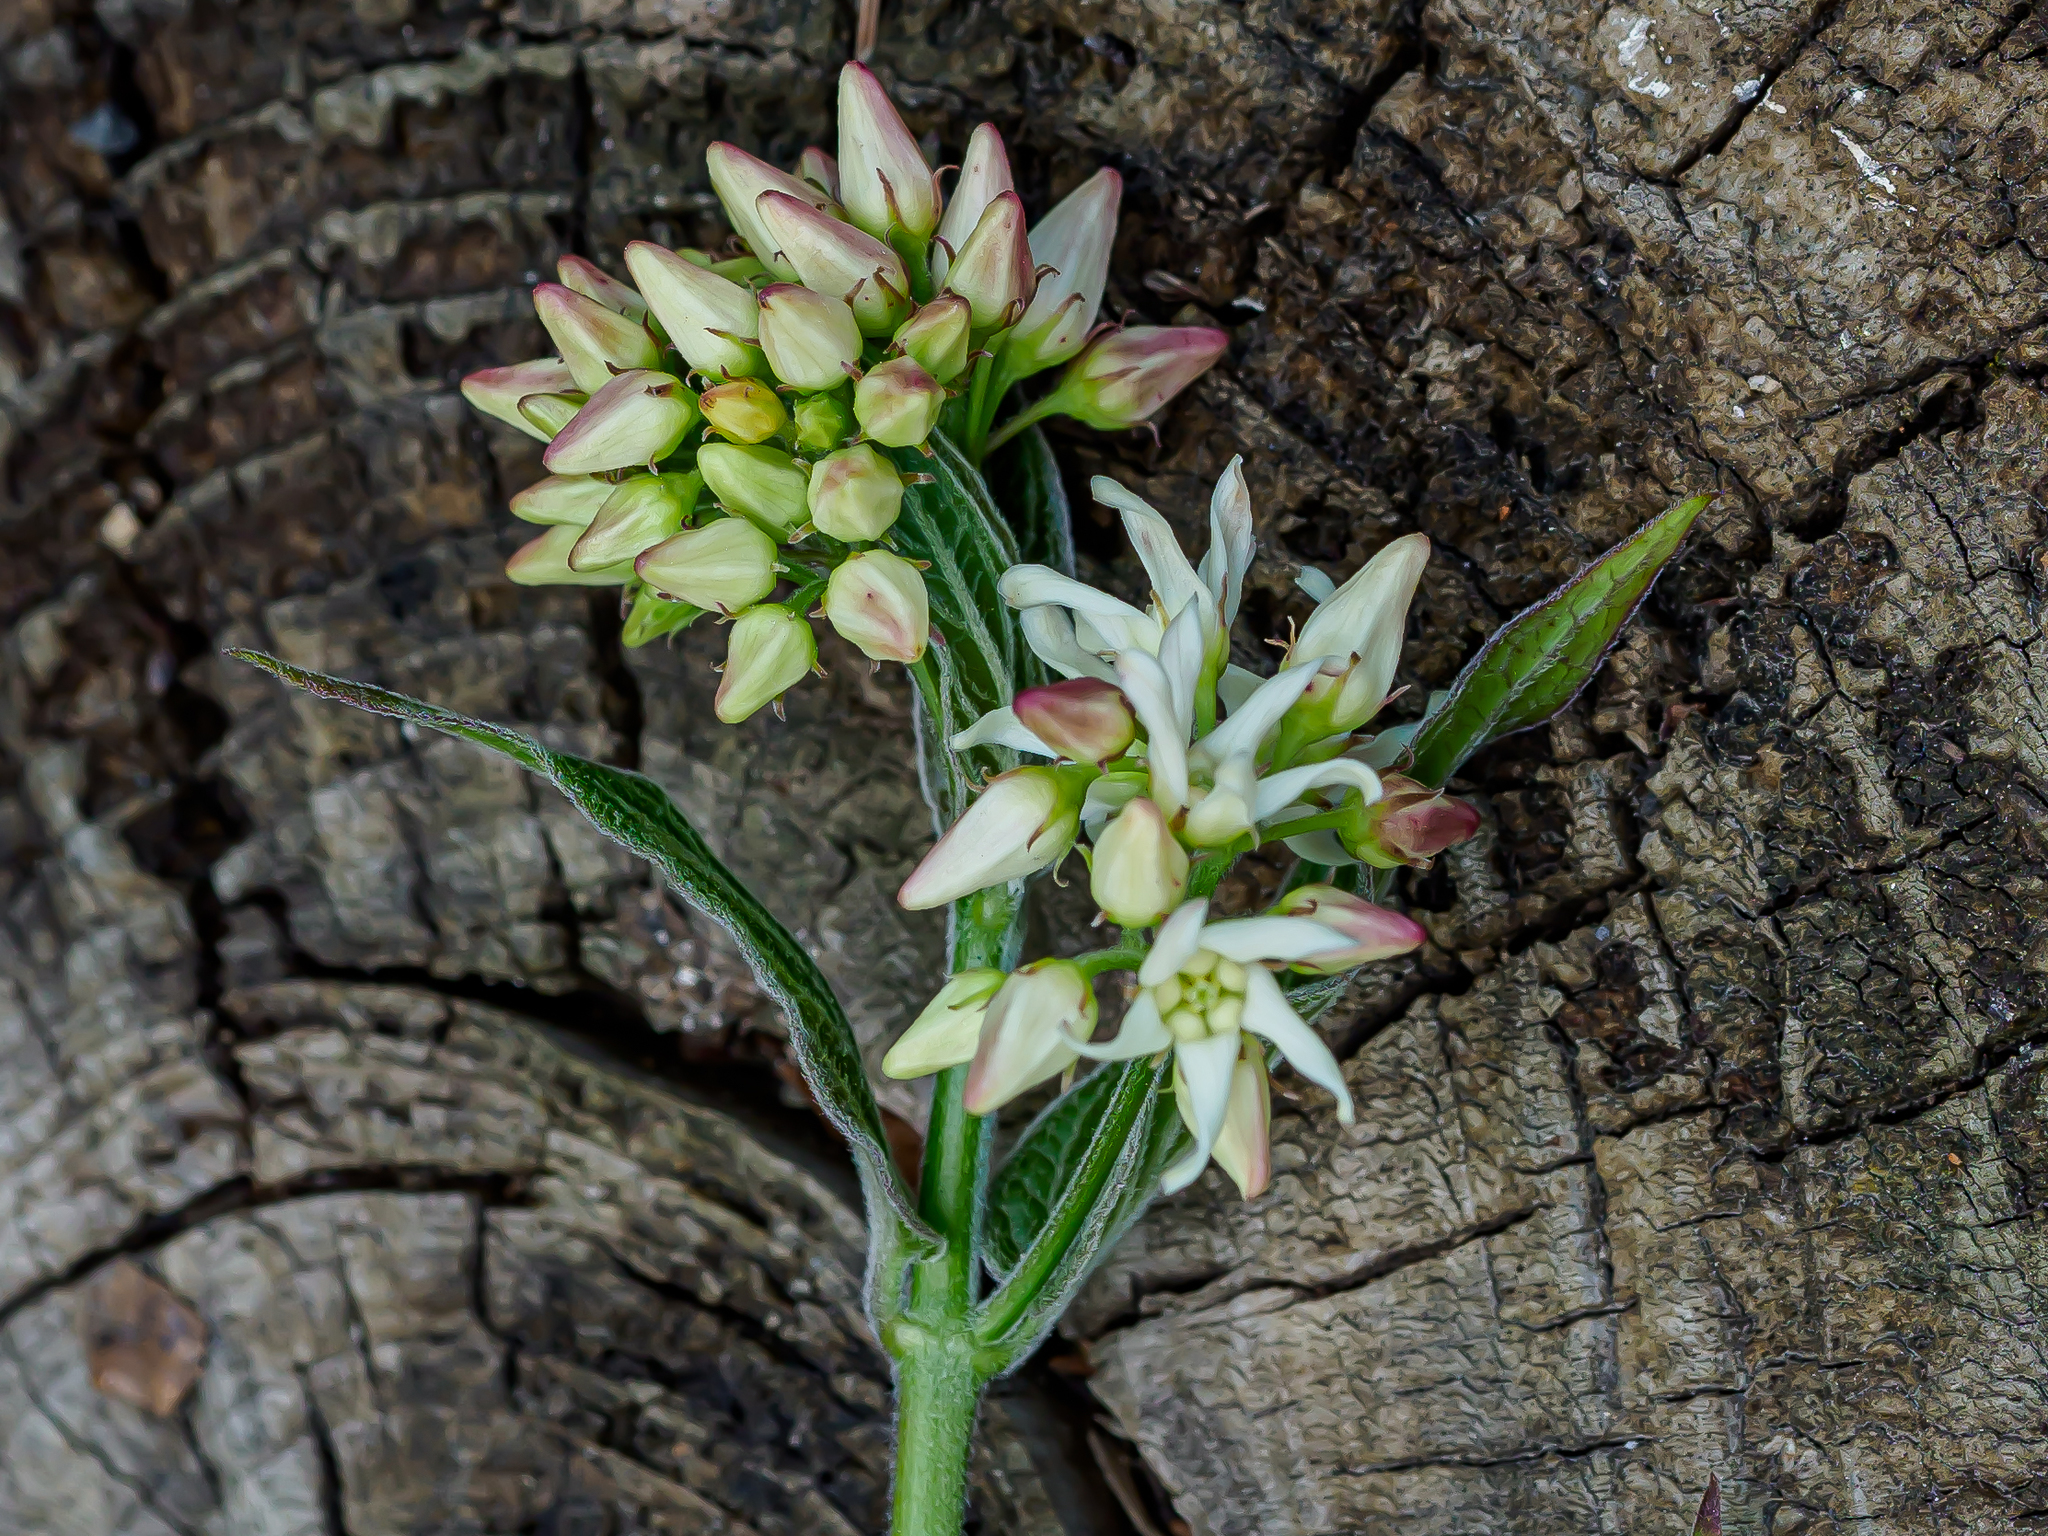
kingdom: Plantae
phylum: Tracheophyta
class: Magnoliopsida
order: Gentianales
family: Apocynaceae
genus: Vincetoxicum
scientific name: Vincetoxicum hirundinaria
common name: White swallowwort
